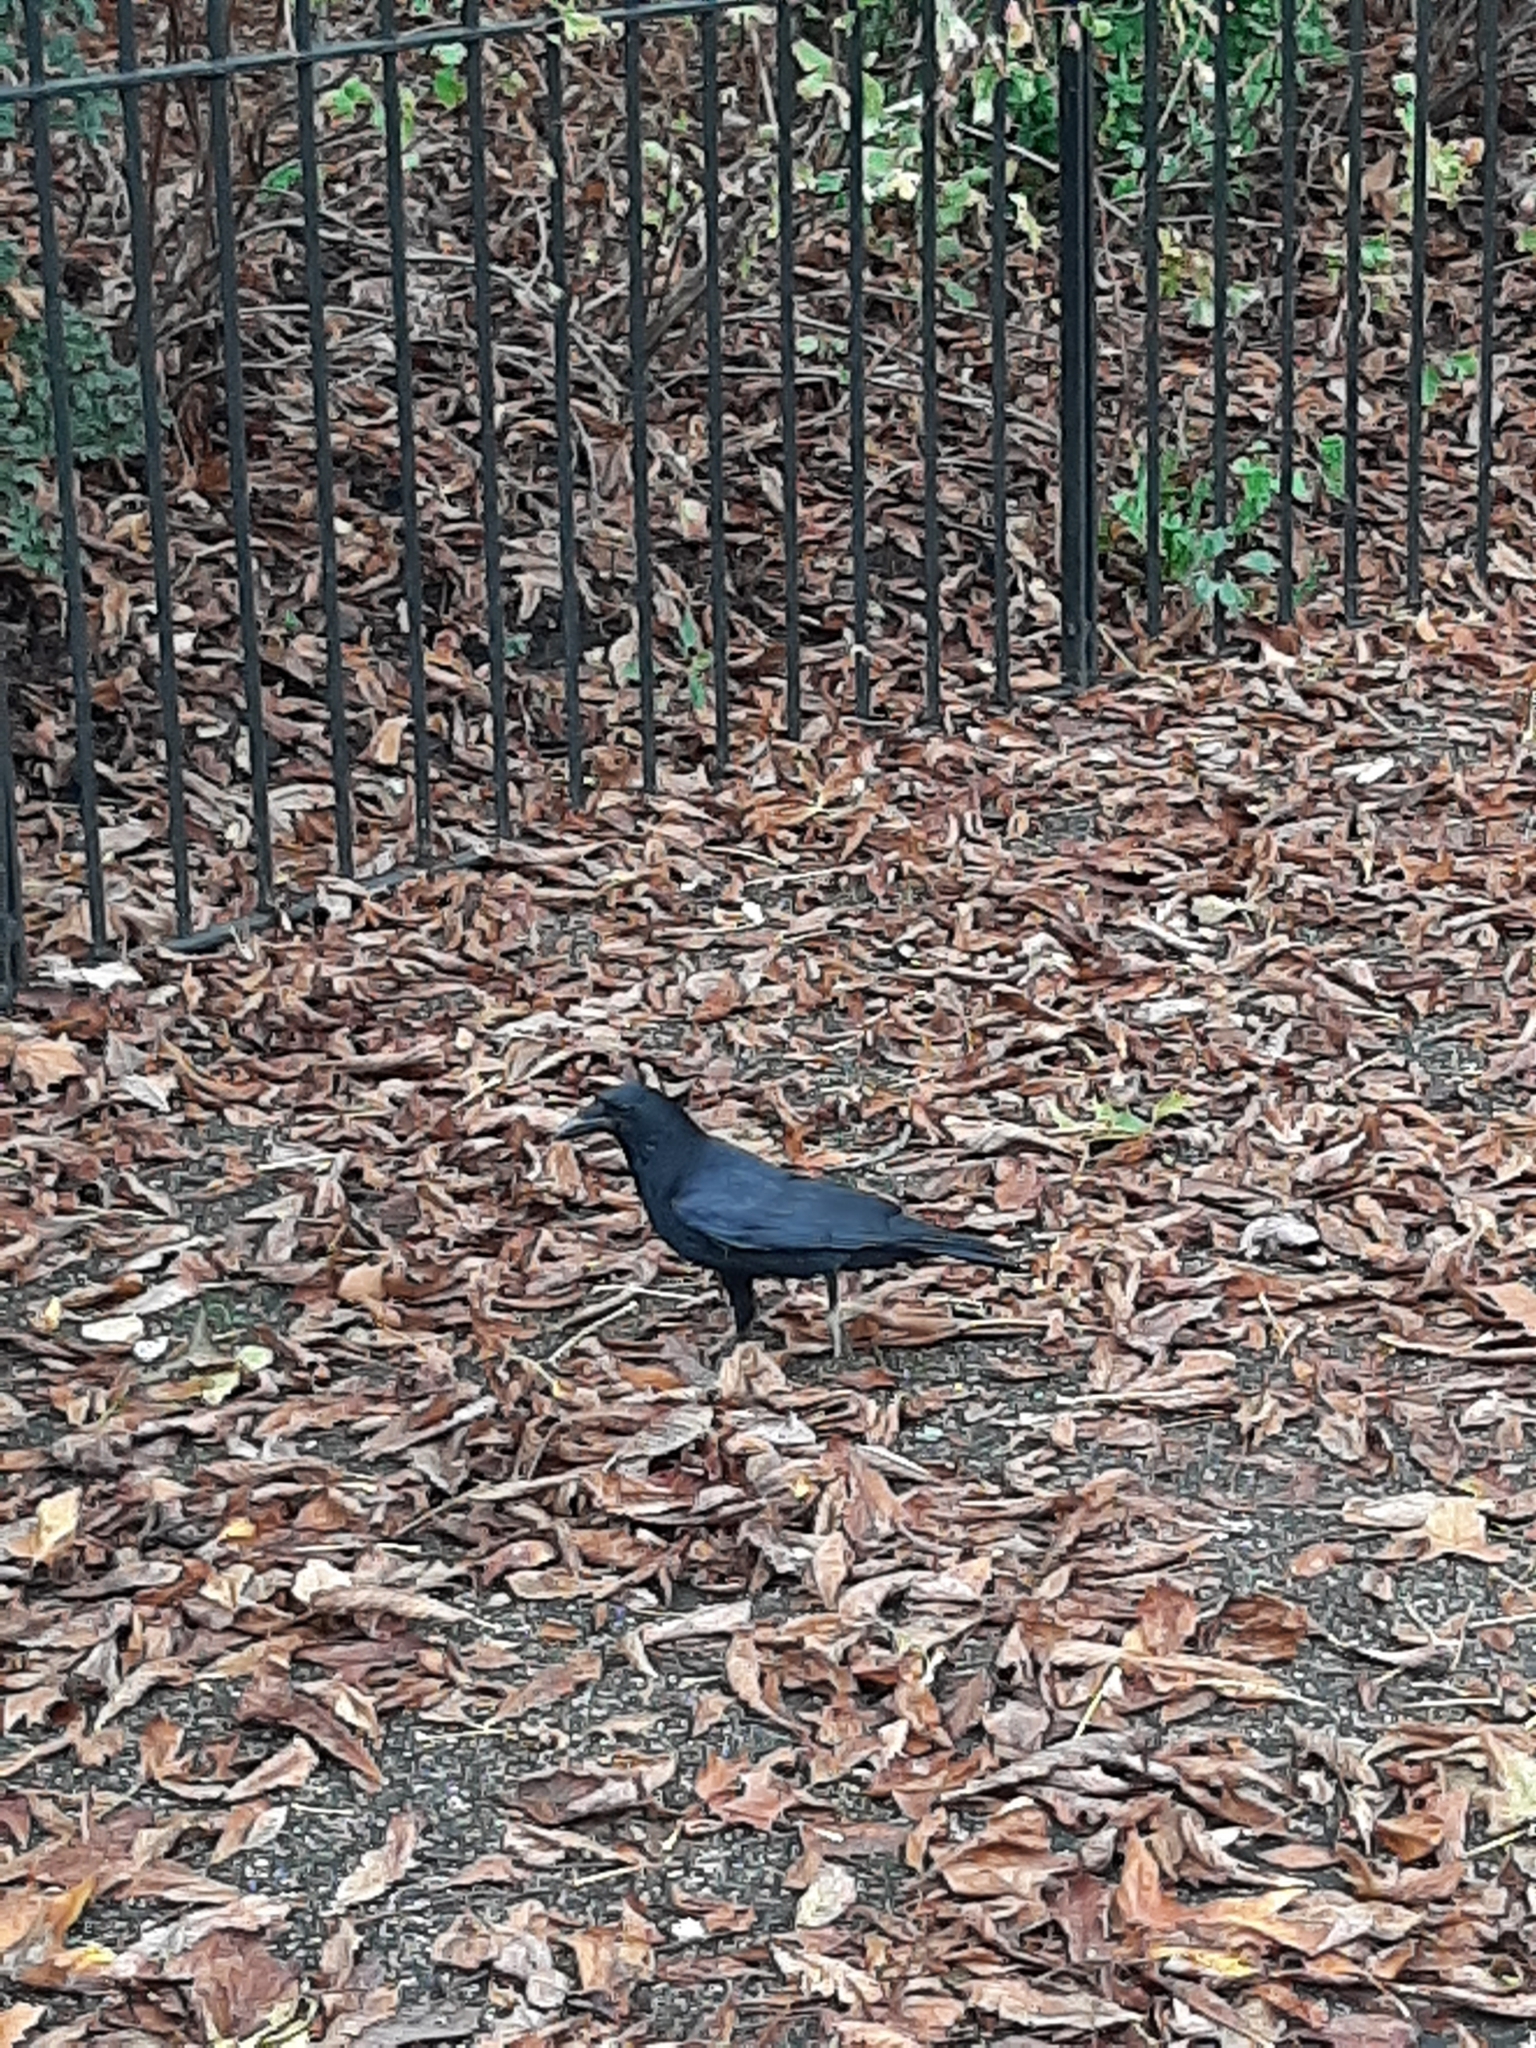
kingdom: Animalia
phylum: Chordata
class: Aves
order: Passeriformes
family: Corvidae
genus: Corvus
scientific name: Corvus corone
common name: Carrion crow
